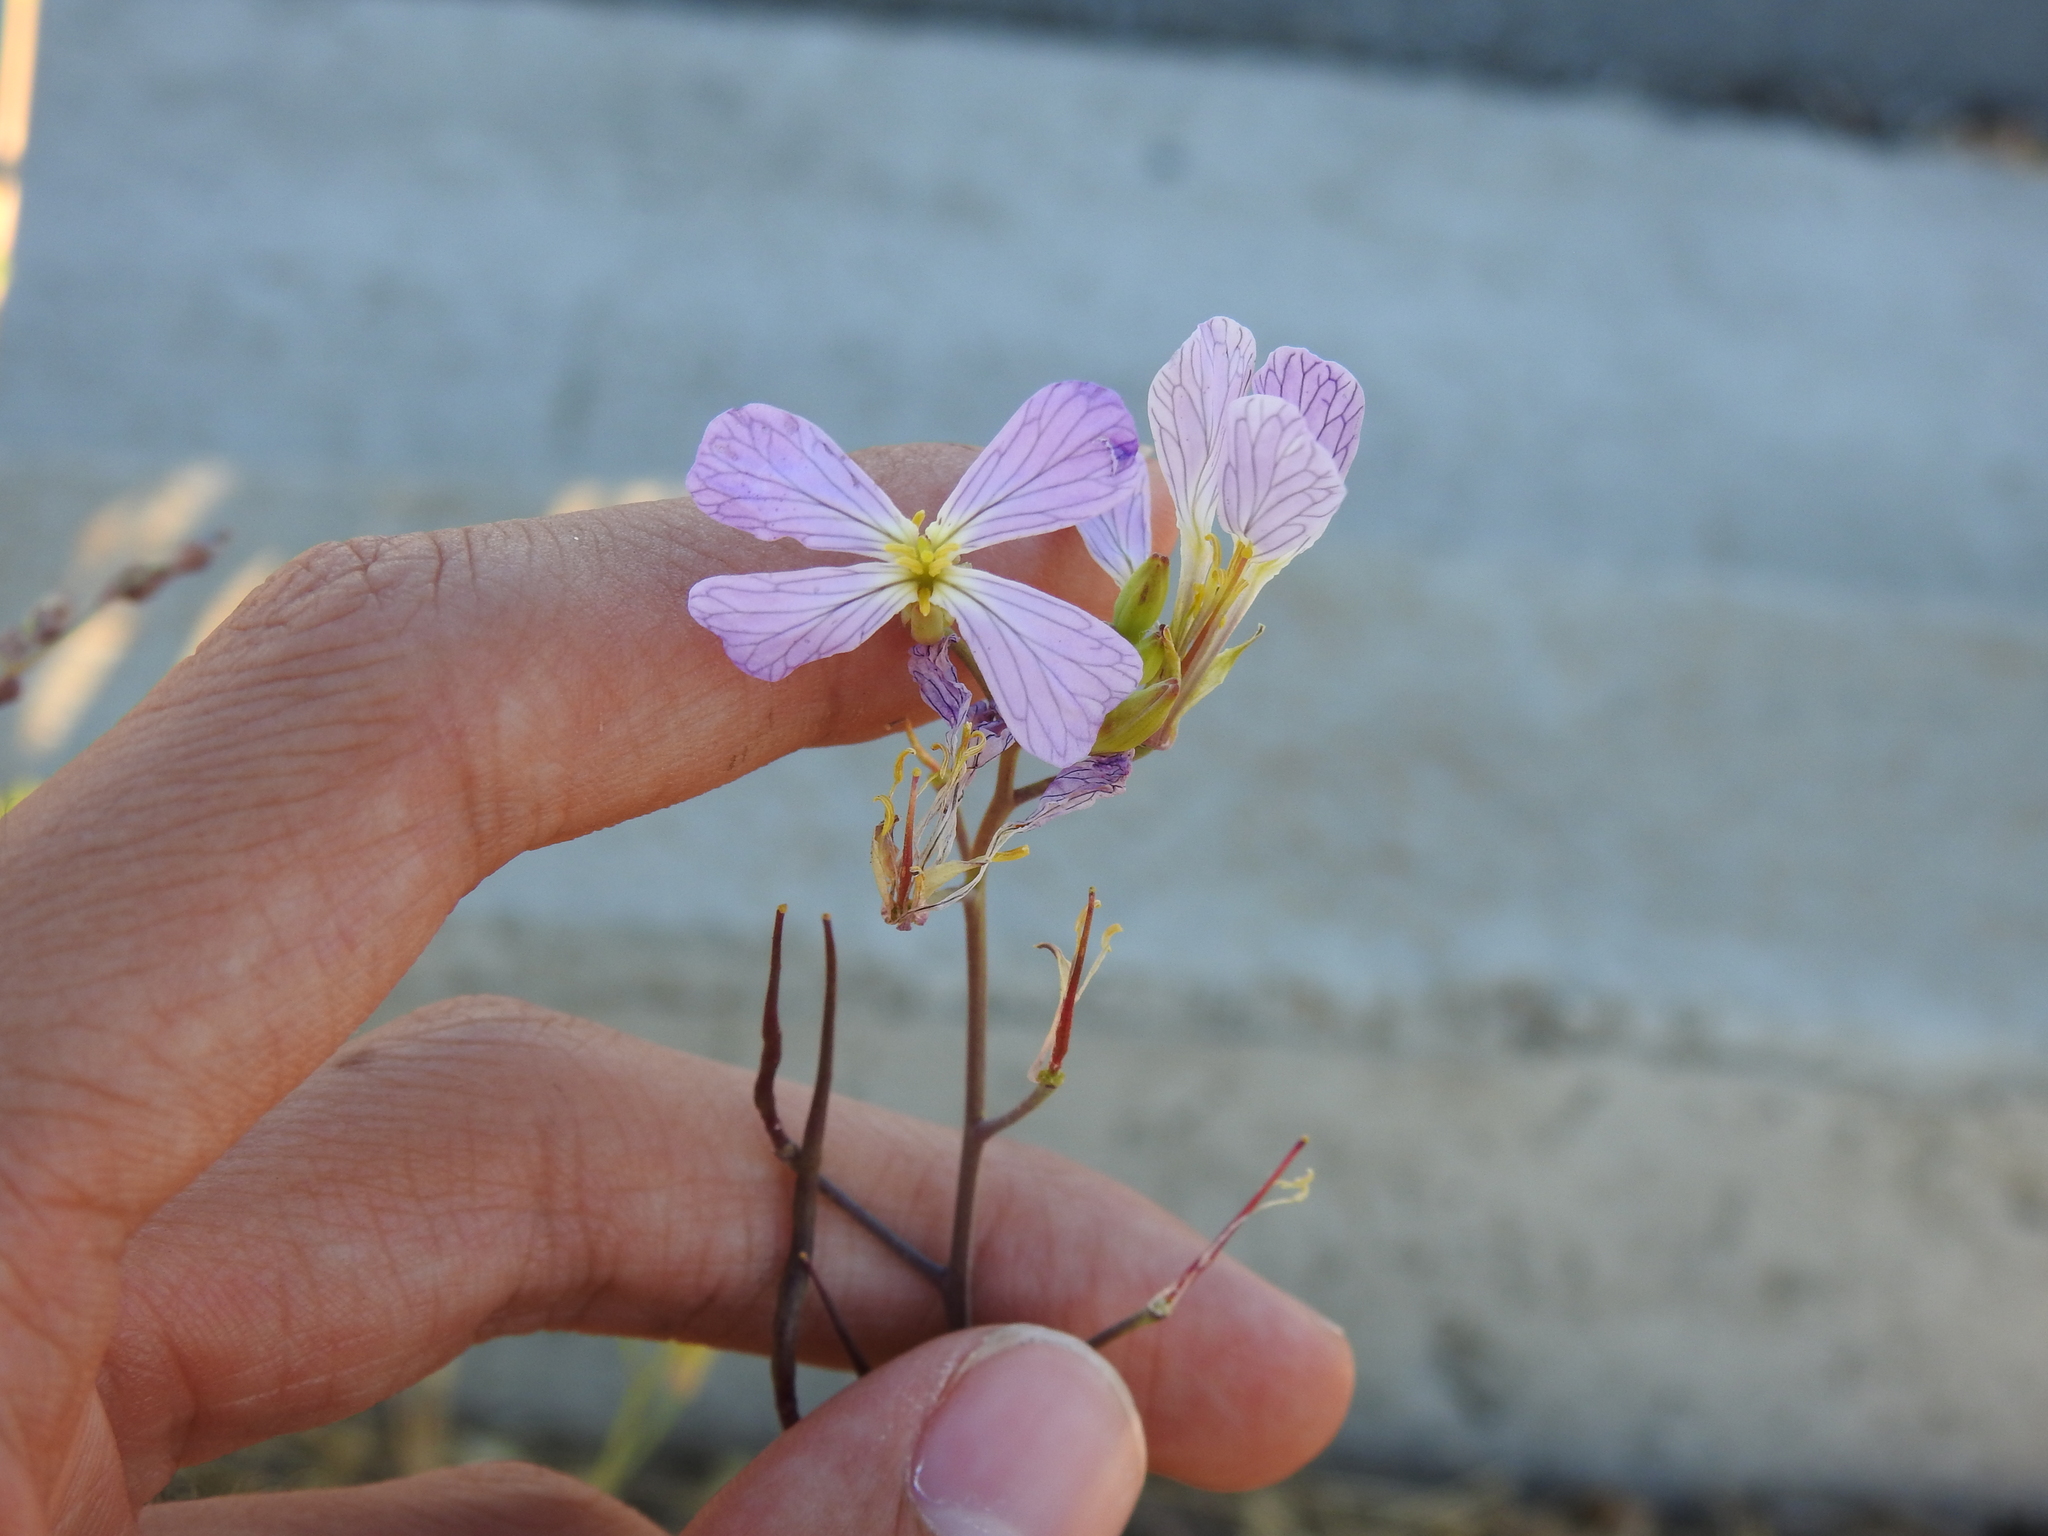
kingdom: Plantae
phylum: Tracheophyta
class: Magnoliopsida
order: Brassicales
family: Brassicaceae
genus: Raphanus
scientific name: Raphanus sativus
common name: Cultivated radish
